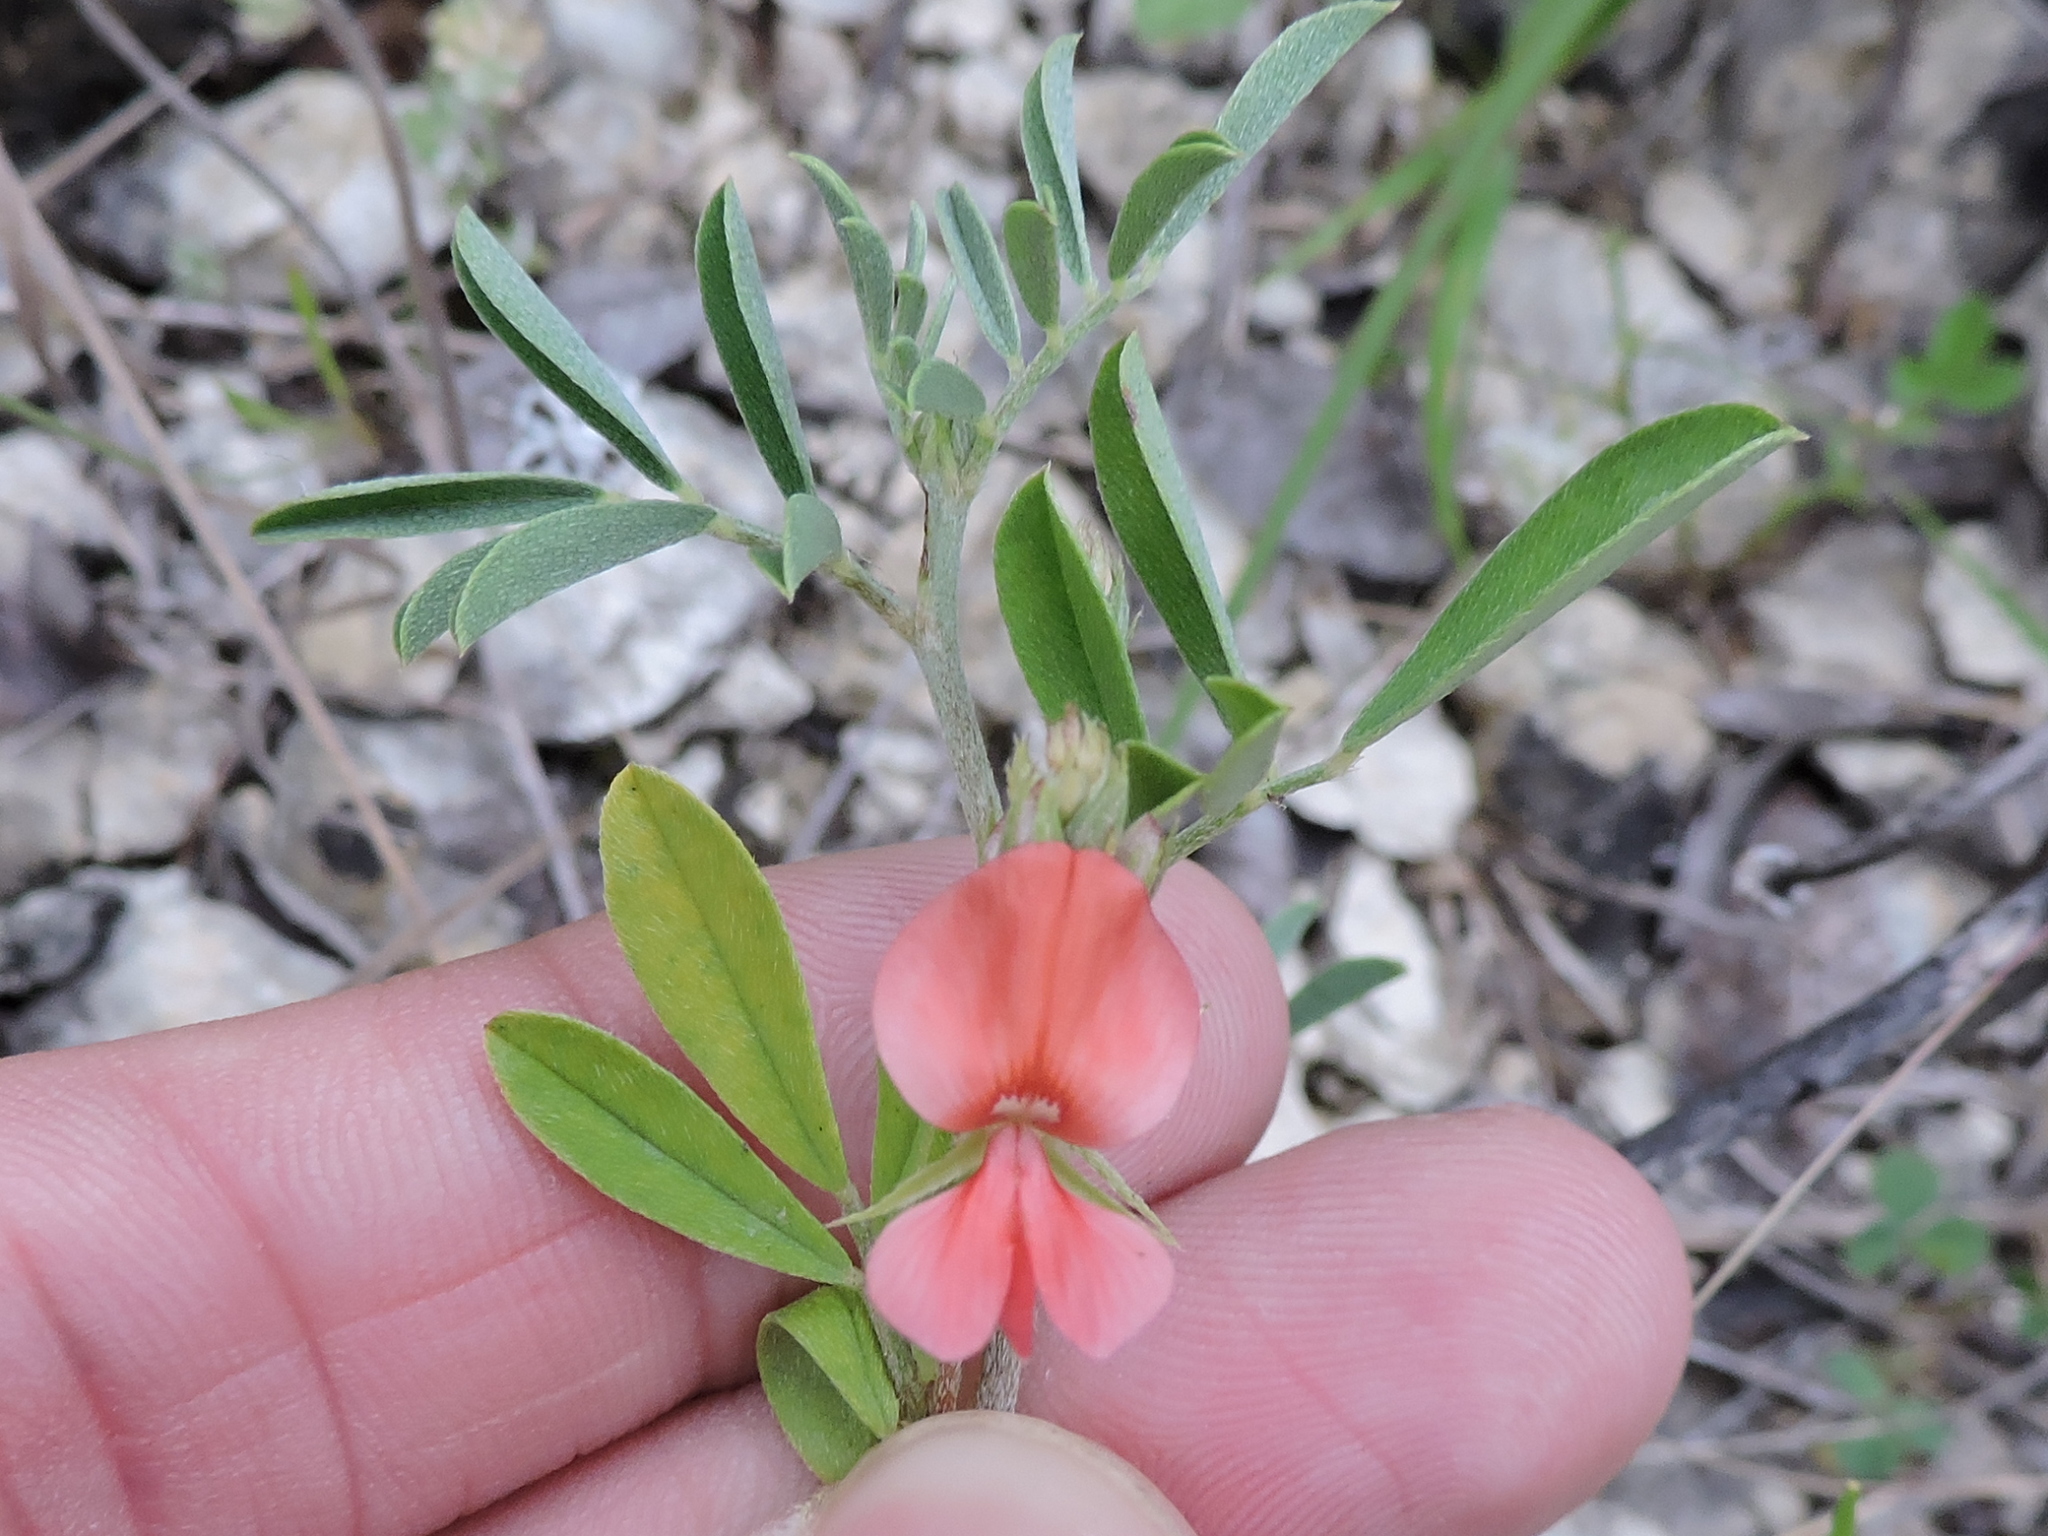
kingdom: Plantae
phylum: Tracheophyta
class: Magnoliopsida
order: Fabales
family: Fabaceae
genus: Indigofera
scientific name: Indigofera miniata
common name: Coast indigo
